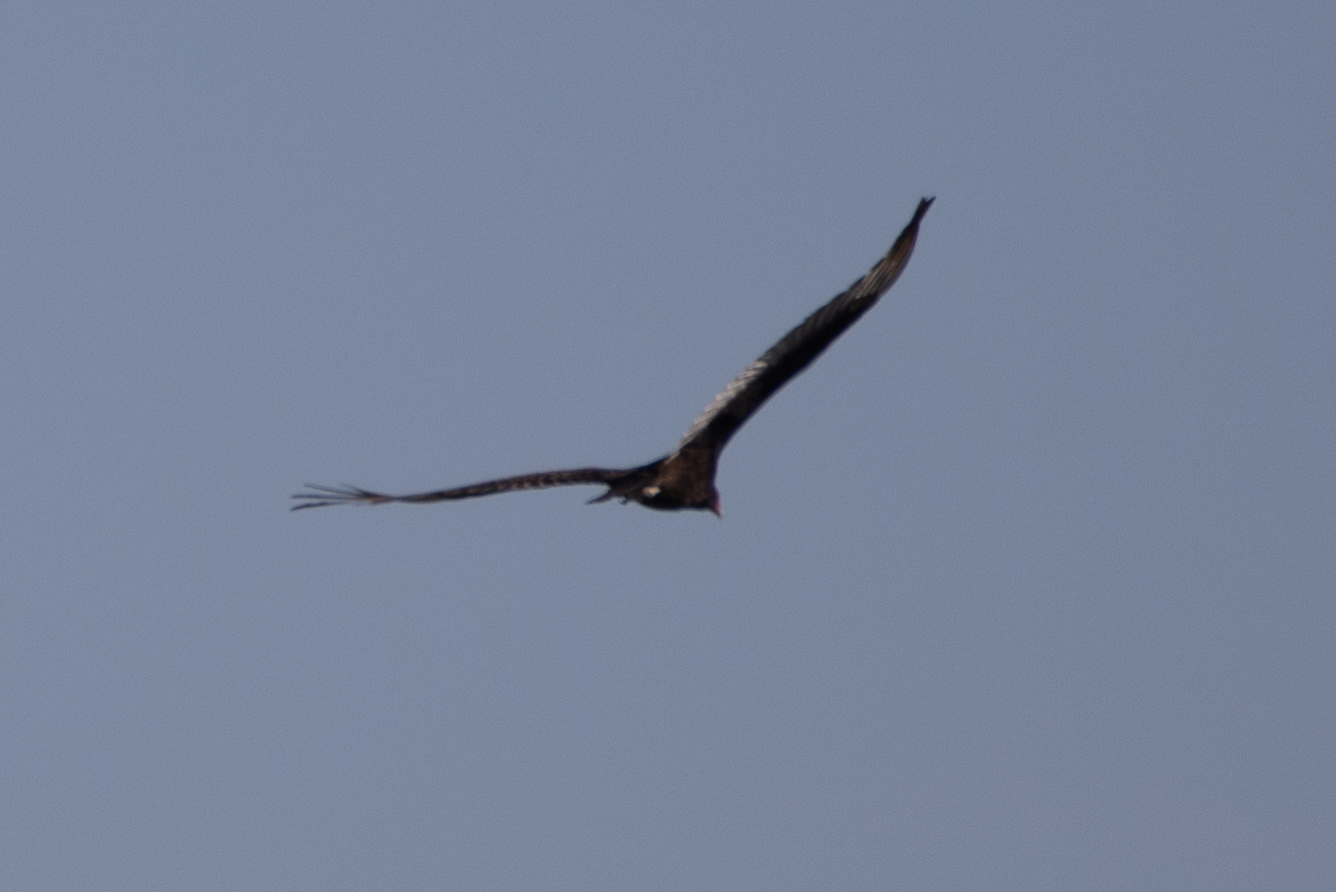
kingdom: Animalia
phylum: Chordata
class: Aves
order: Accipitriformes
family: Cathartidae
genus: Cathartes
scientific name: Cathartes aura
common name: Turkey vulture
